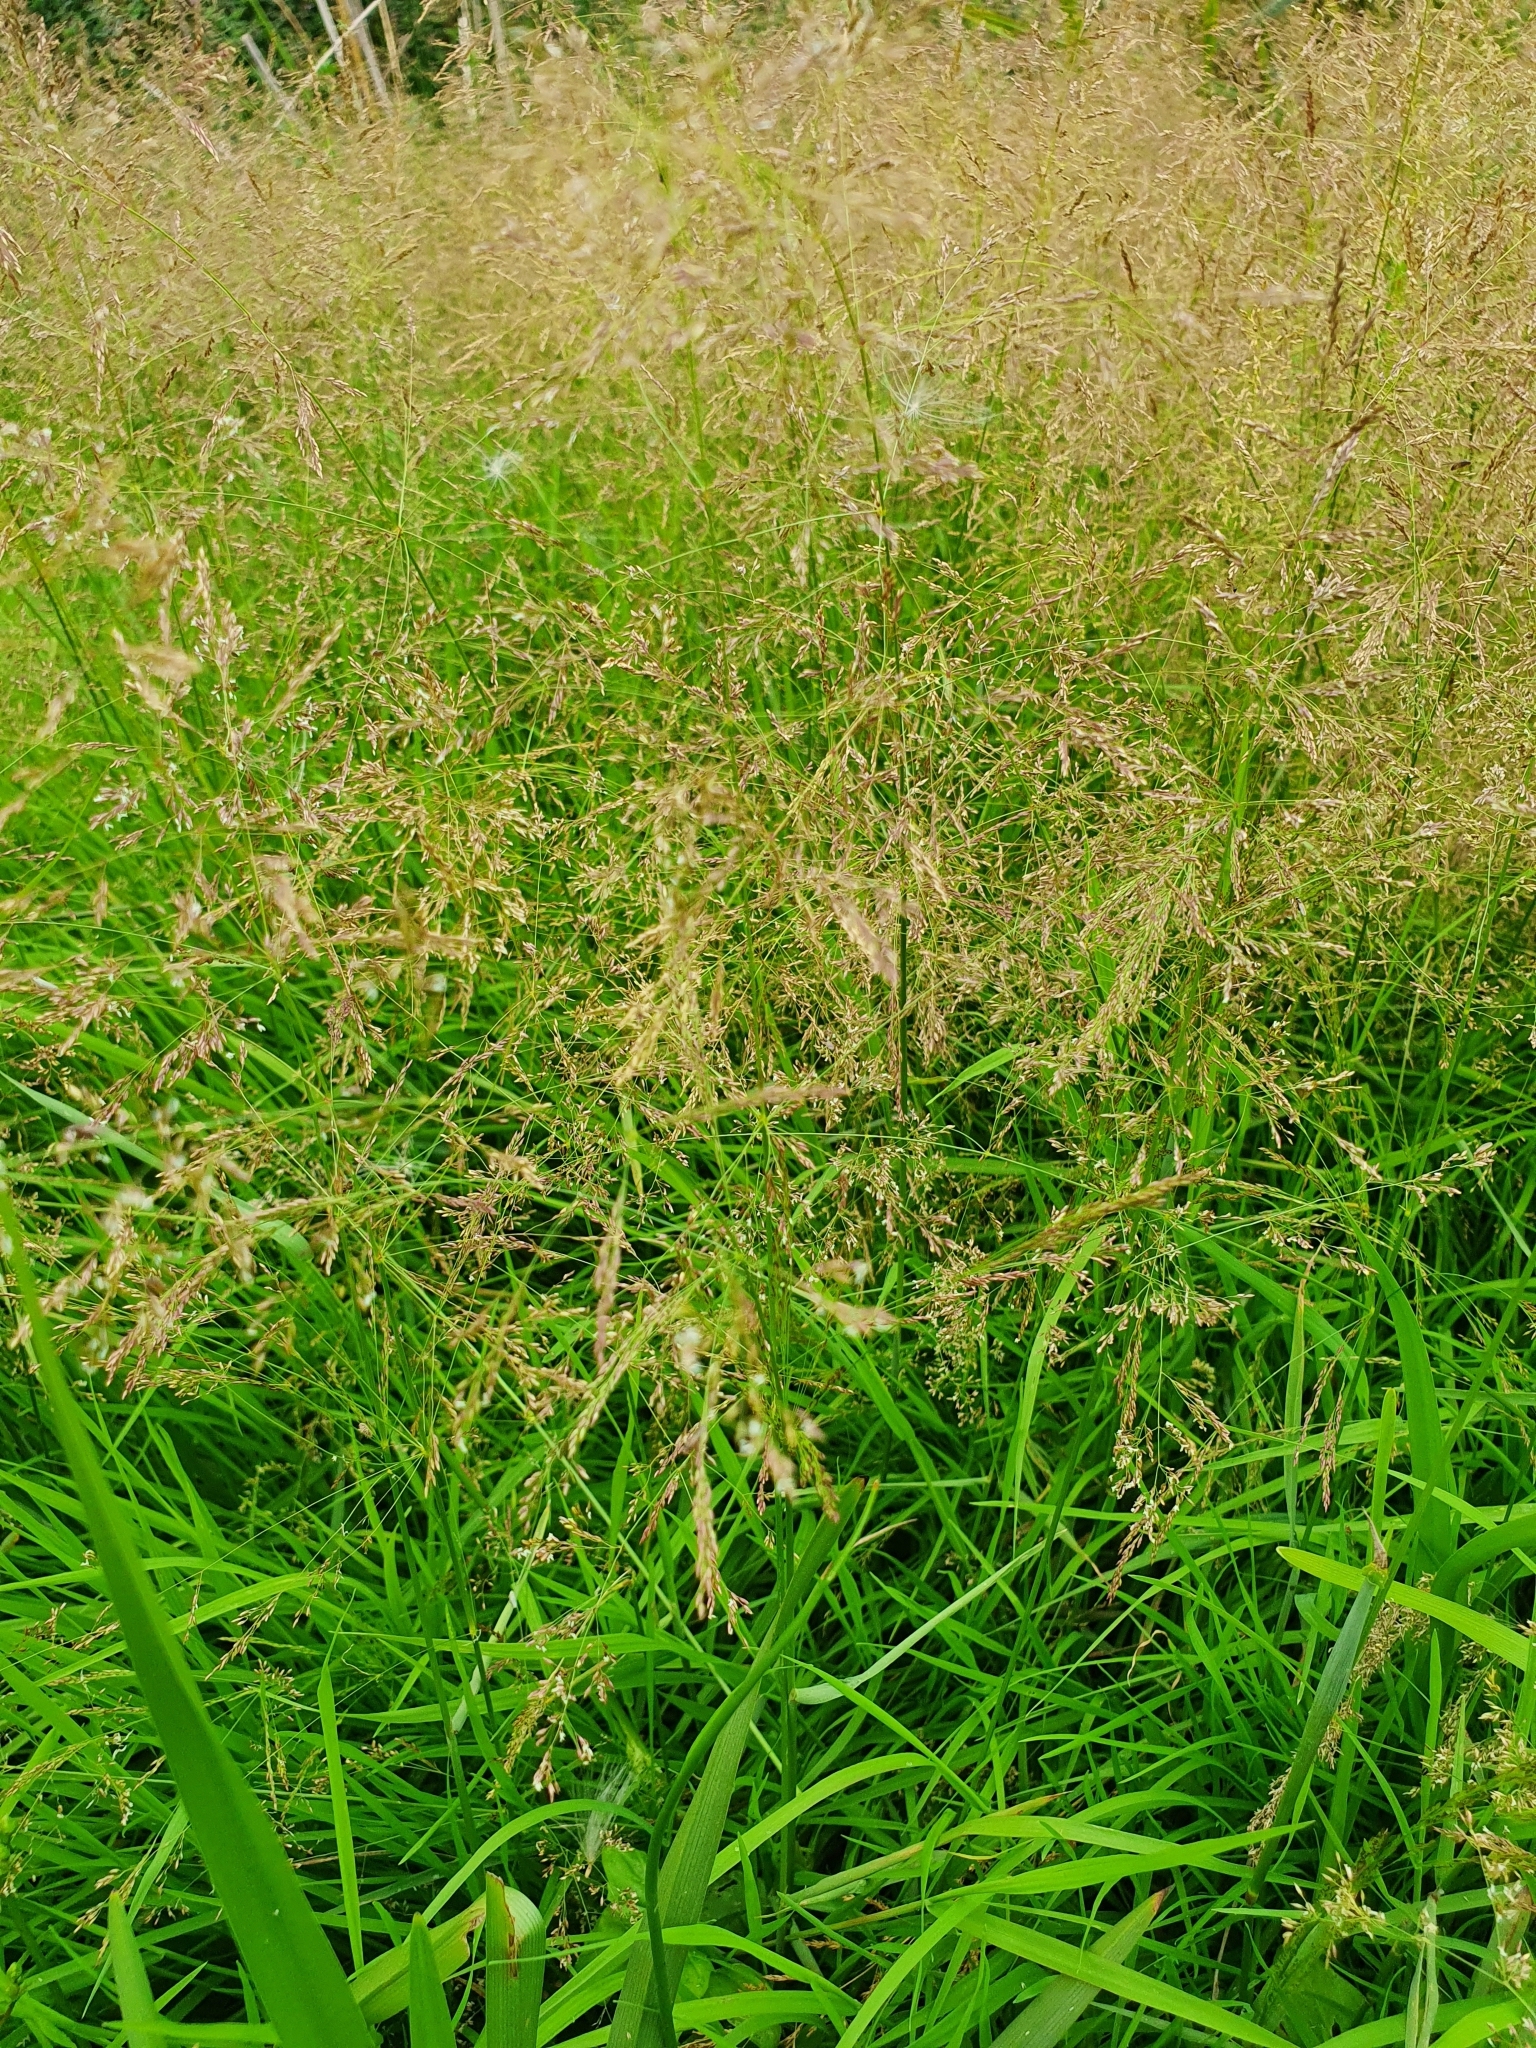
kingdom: Plantae
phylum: Tracheophyta
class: Liliopsida
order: Poales
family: Poaceae
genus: Agrostis
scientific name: Agrostis capillaris
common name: Colonial bentgrass
